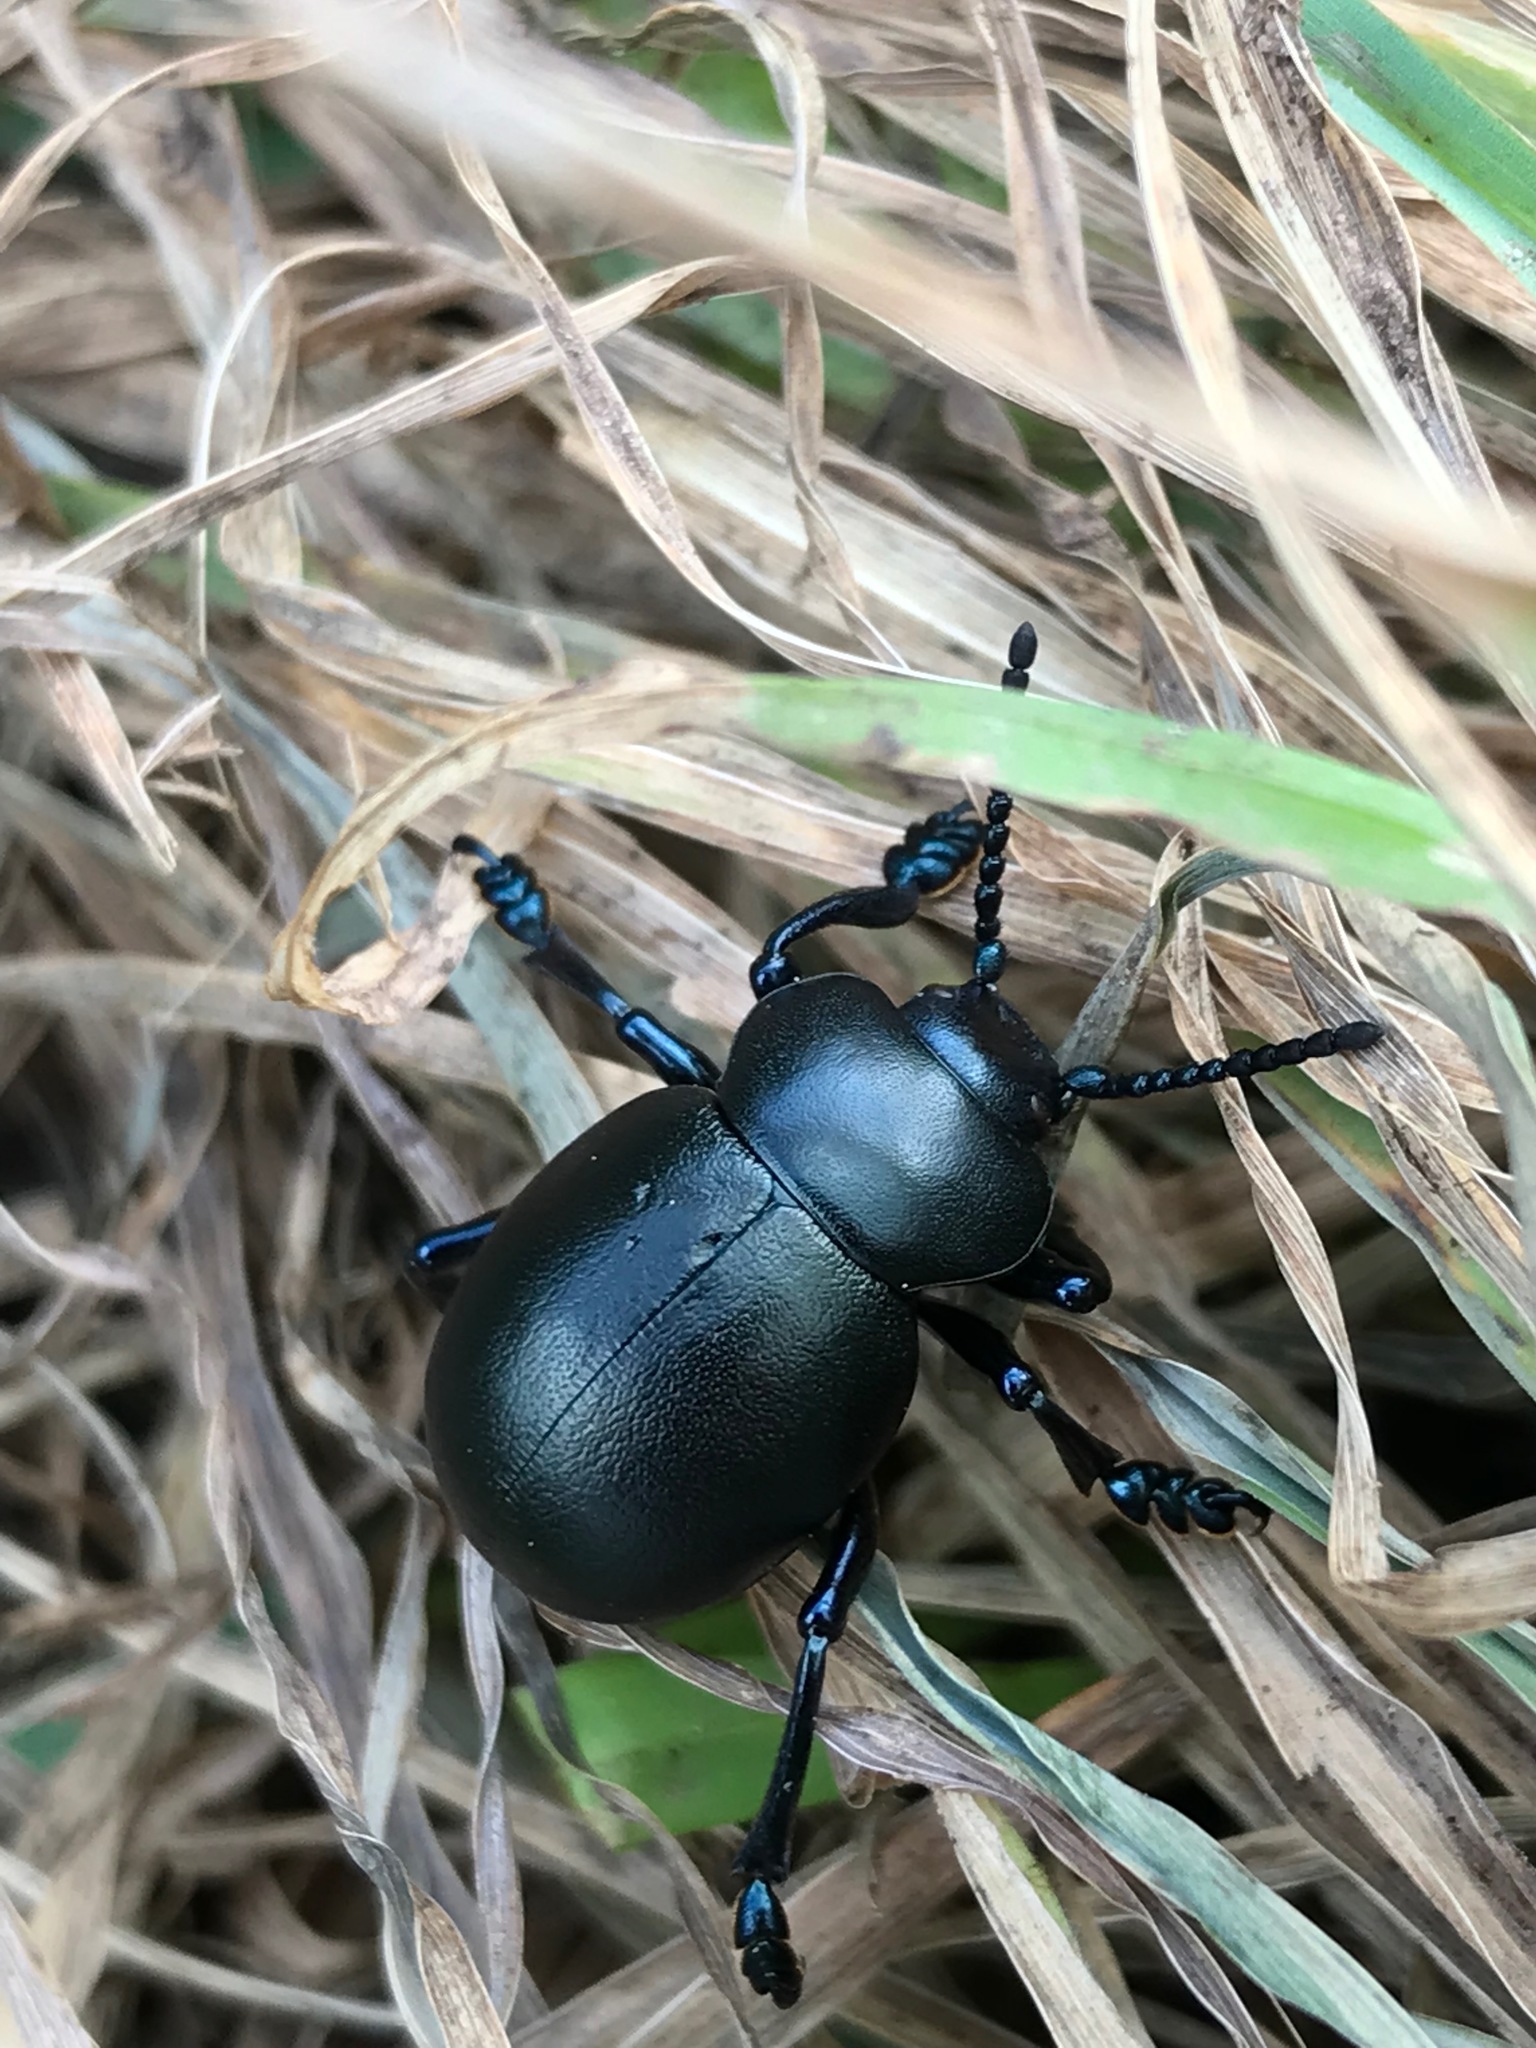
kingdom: Animalia
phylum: Arthropoda
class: Insecta
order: Coleoptera
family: Chrysomelidae
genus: Timarcha
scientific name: Timarcha tenebricosa
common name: Bloody-nosed beetle
